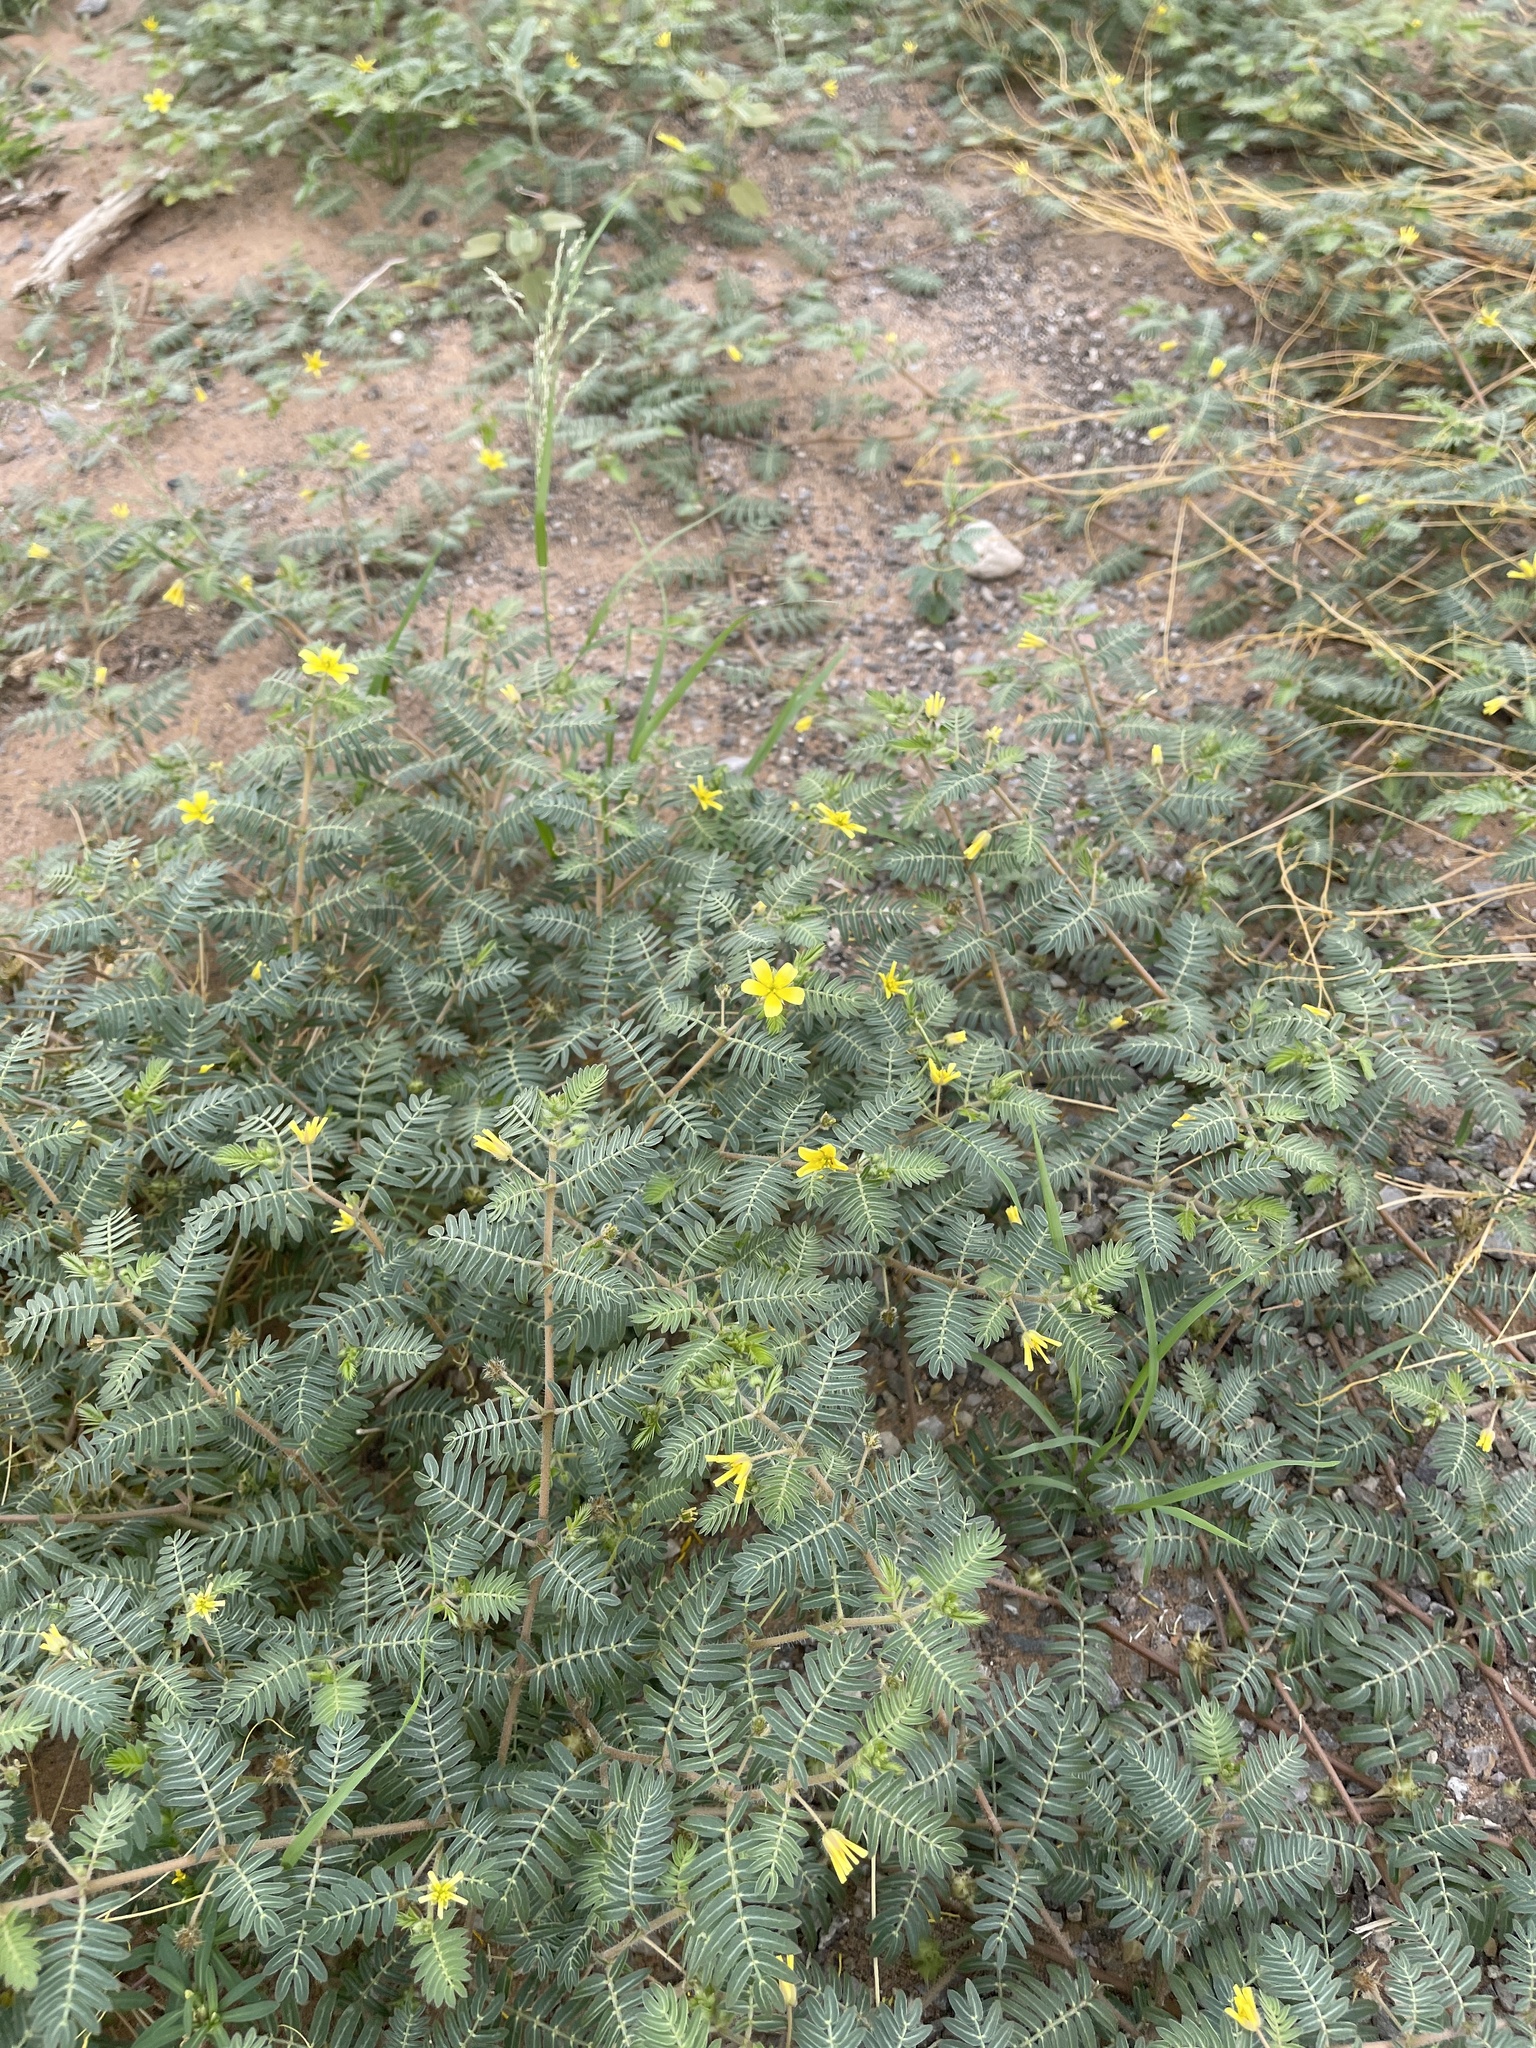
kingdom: Plantae
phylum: Tracheophyta
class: Magnoliopsida
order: Zygophyllales
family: Zygophyllaceae
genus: Tribulus
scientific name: Tribulus terrestris
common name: Puncturevine
